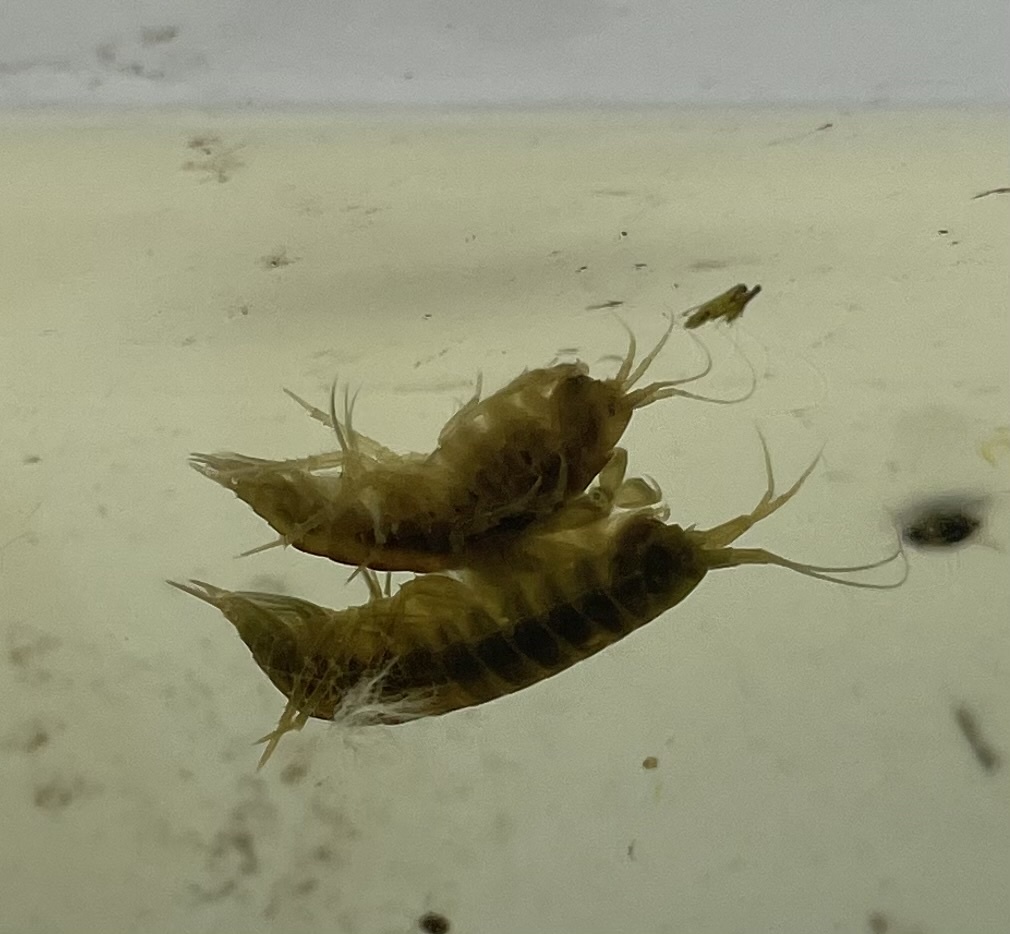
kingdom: Animalia
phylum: Arthropoda
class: Malacostraca
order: Amphipoda
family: Gammaridae
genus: Gammarus
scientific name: Gammarus lacustris
